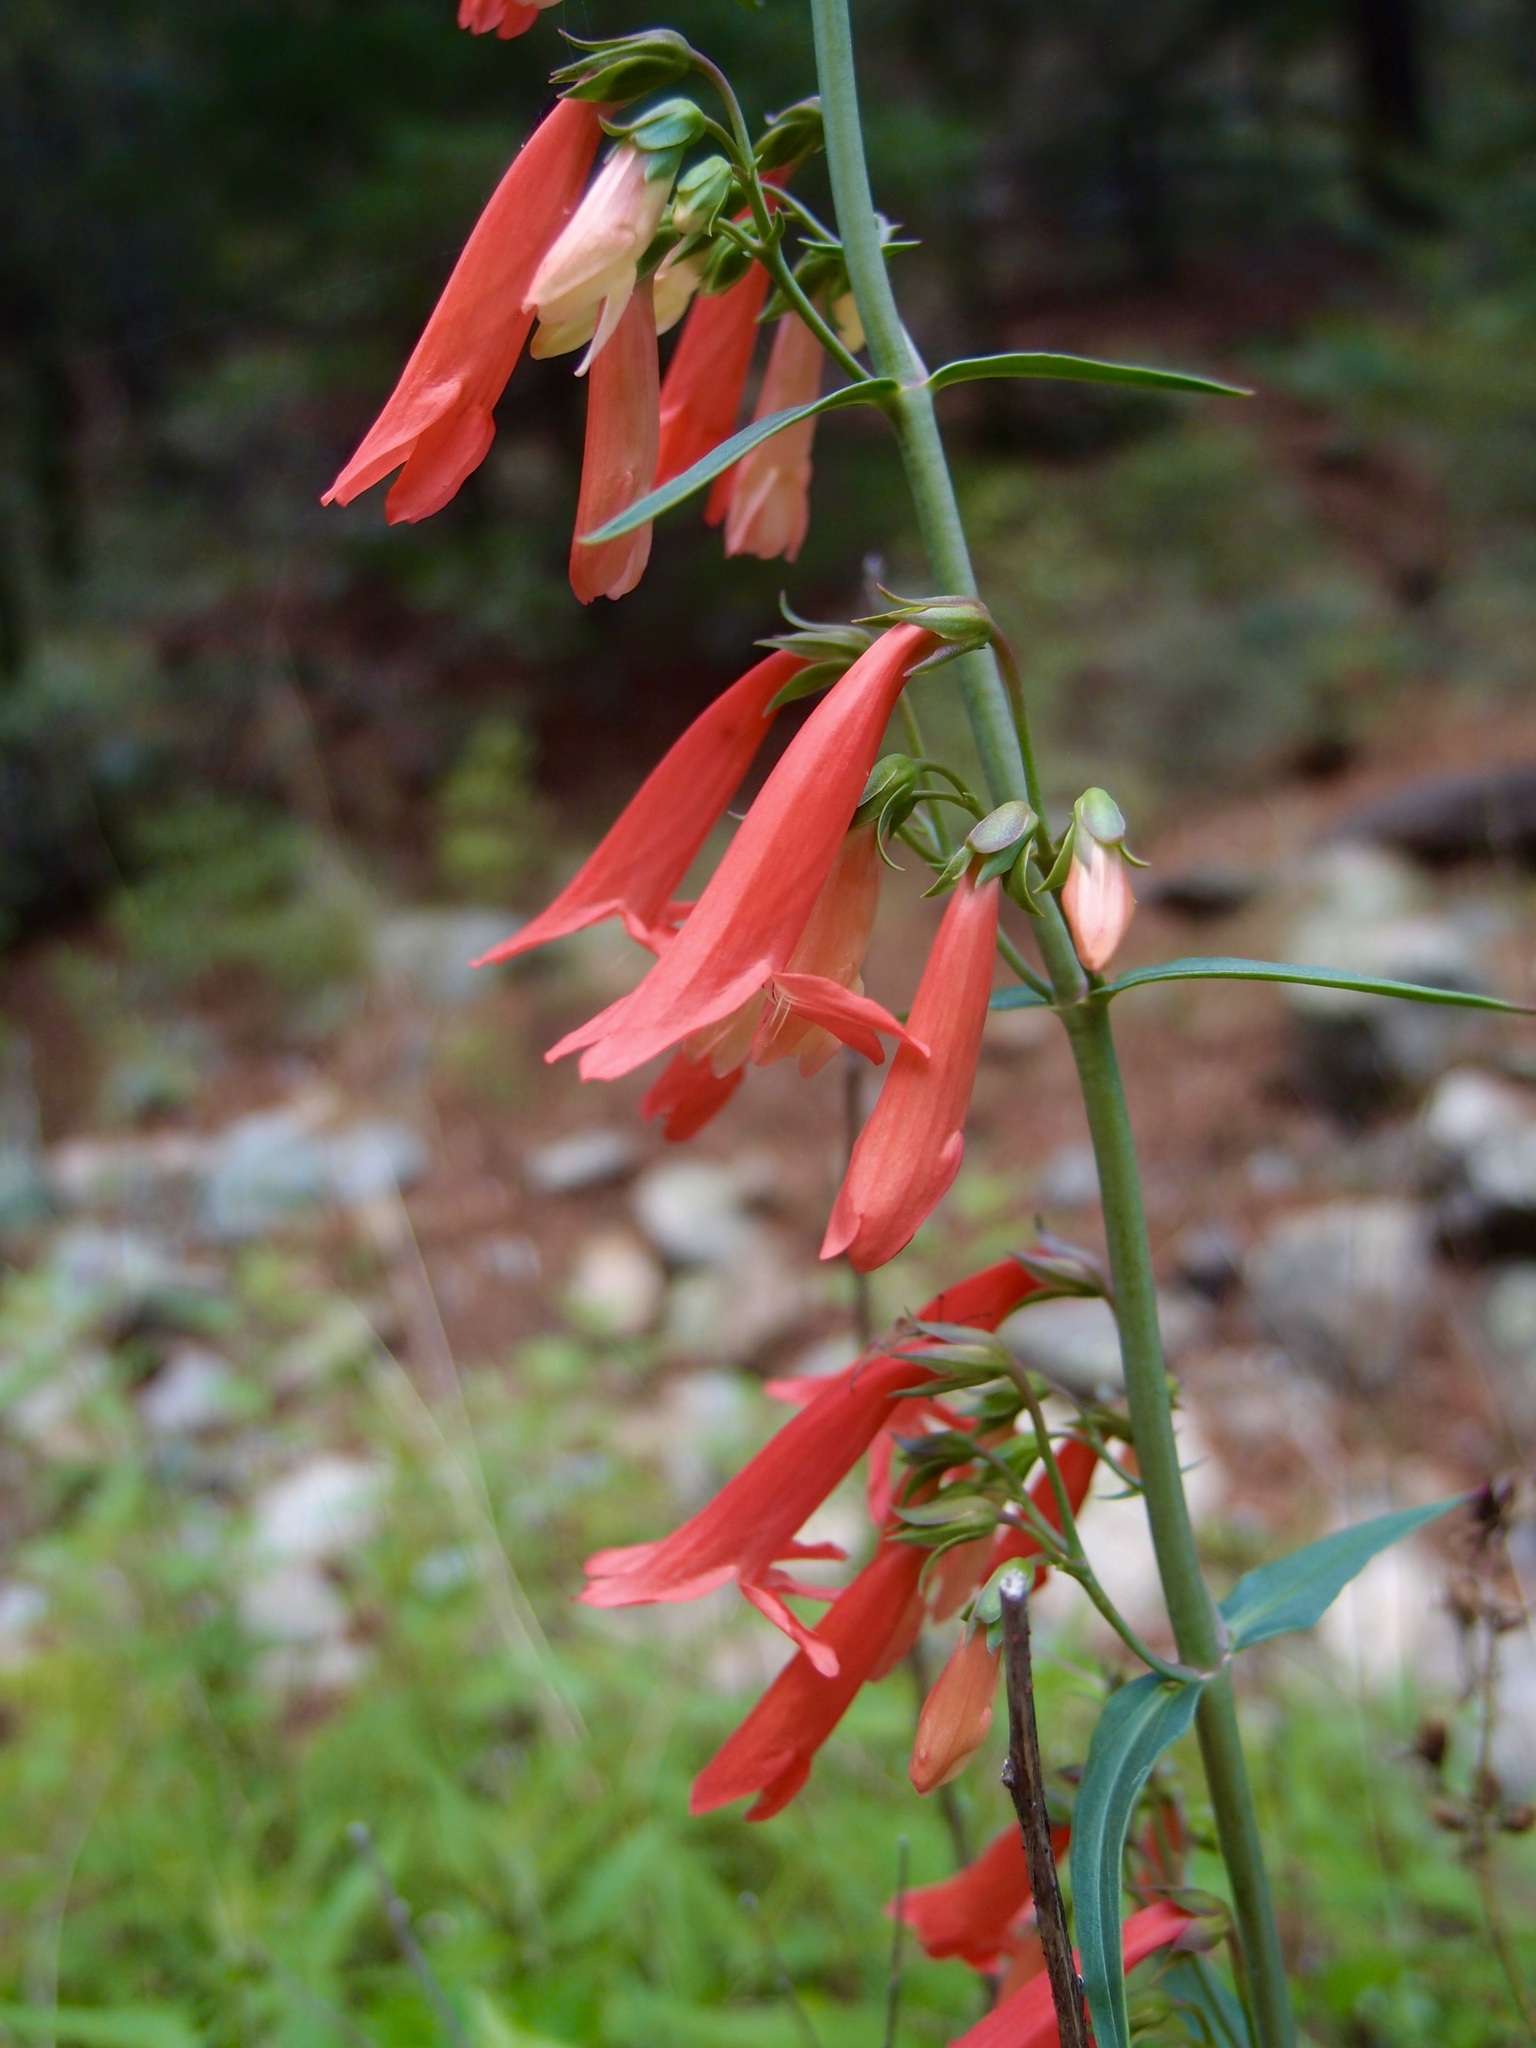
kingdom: Plantae
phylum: Tracheophyta
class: Magnoliopsida
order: Lamiales
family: Plantaginaceae
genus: Penstemon
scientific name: Penstemon barbatus
